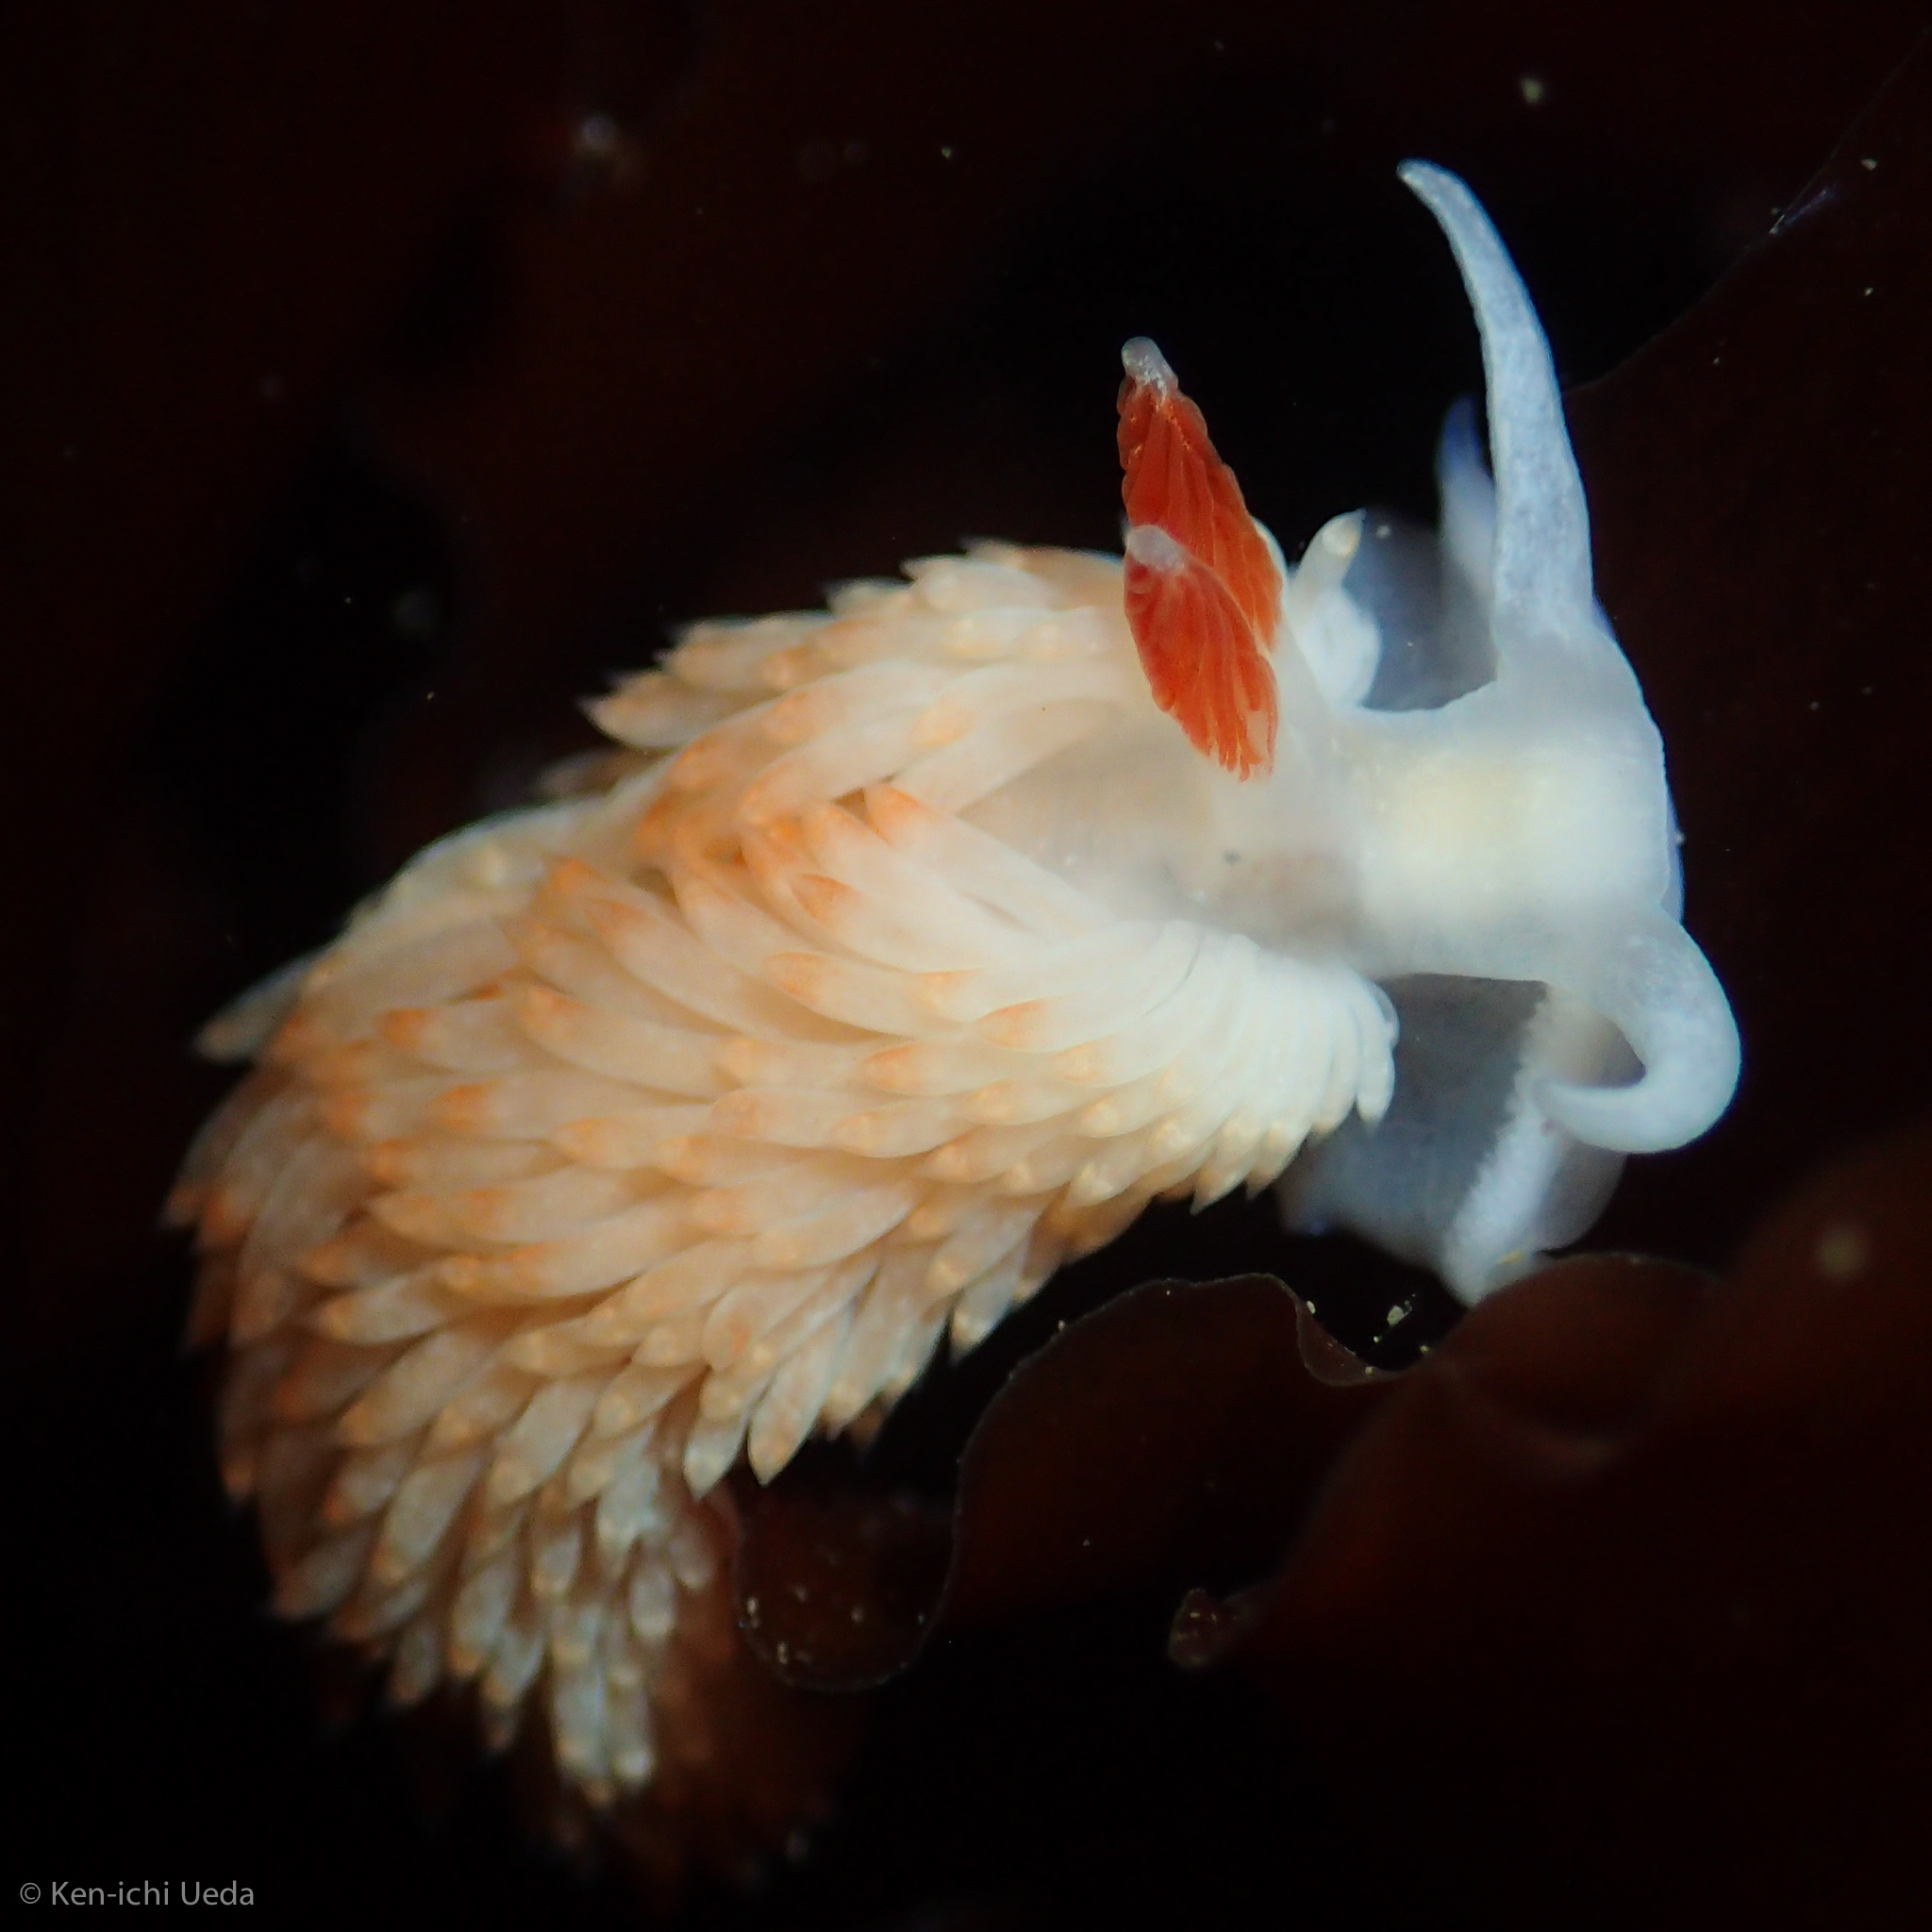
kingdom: Animalia
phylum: Mollusca
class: Gastropoda
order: Nudibranchia
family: Aeolidiidae
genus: Anteaeolidiella
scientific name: Anteaeolidiella oliviae
